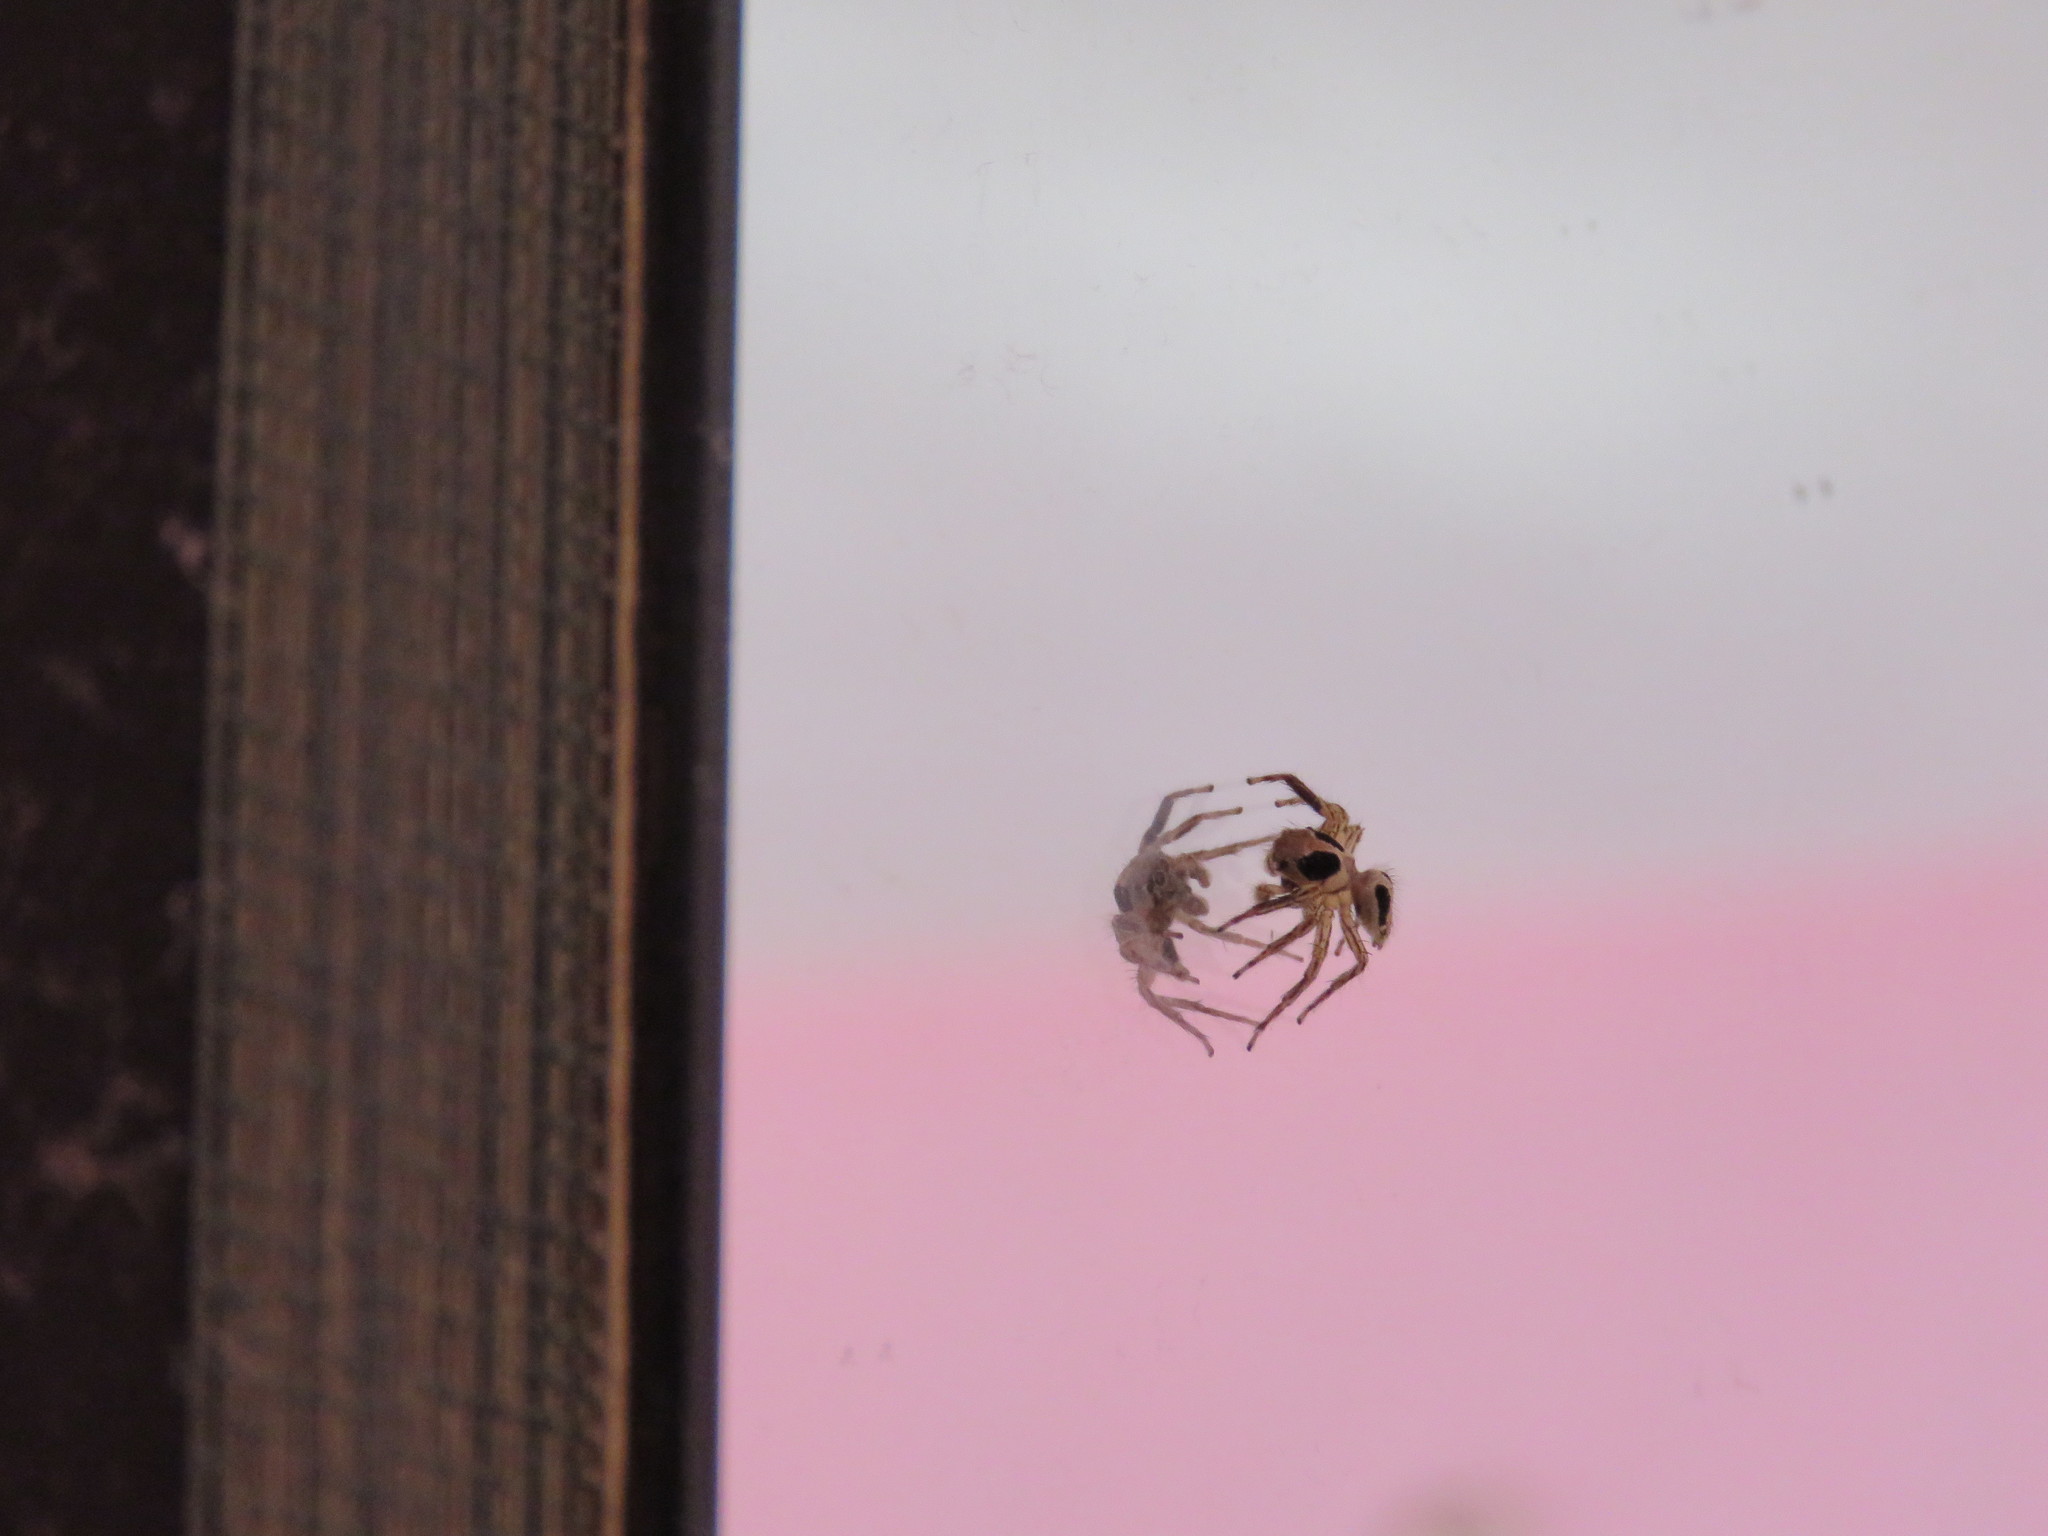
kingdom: Animalia
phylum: Arthropoda
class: Arachnida
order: Araneae
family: Salticidae
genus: Plexippus
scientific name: Plexippus petersi
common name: Jumping spider
